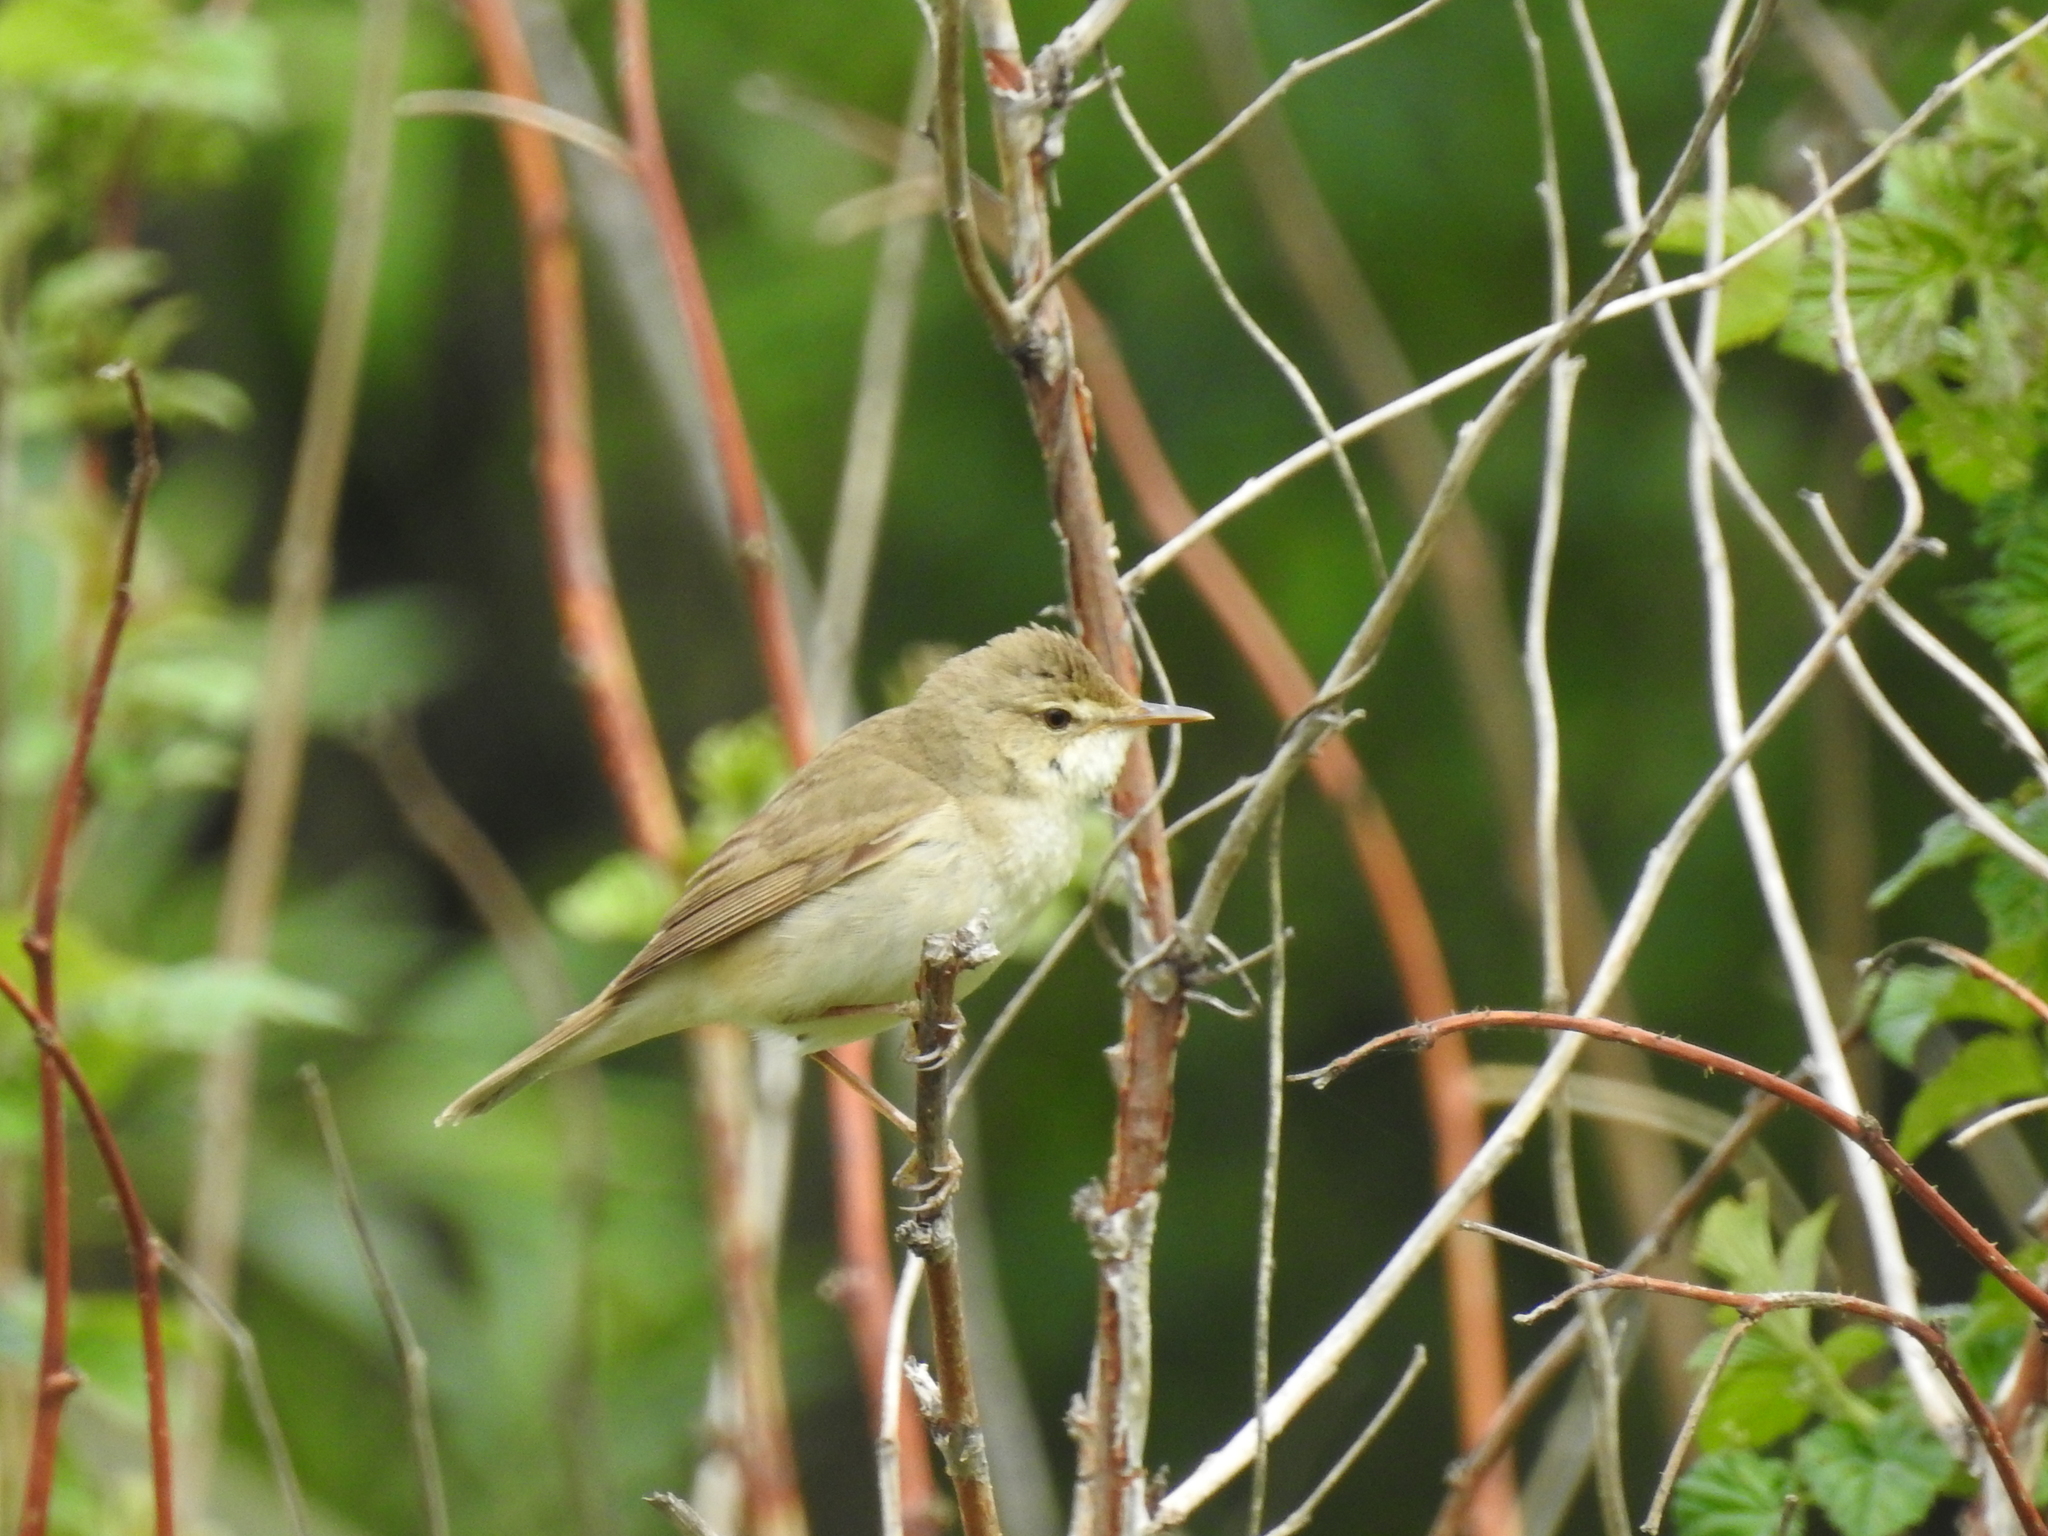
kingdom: Animalia
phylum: Chordata
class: Aves
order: Passeriformes
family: Acrocephalidae
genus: Acrocephalus
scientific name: Acrocephalus dumetorum
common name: Blyth's reed warbler
